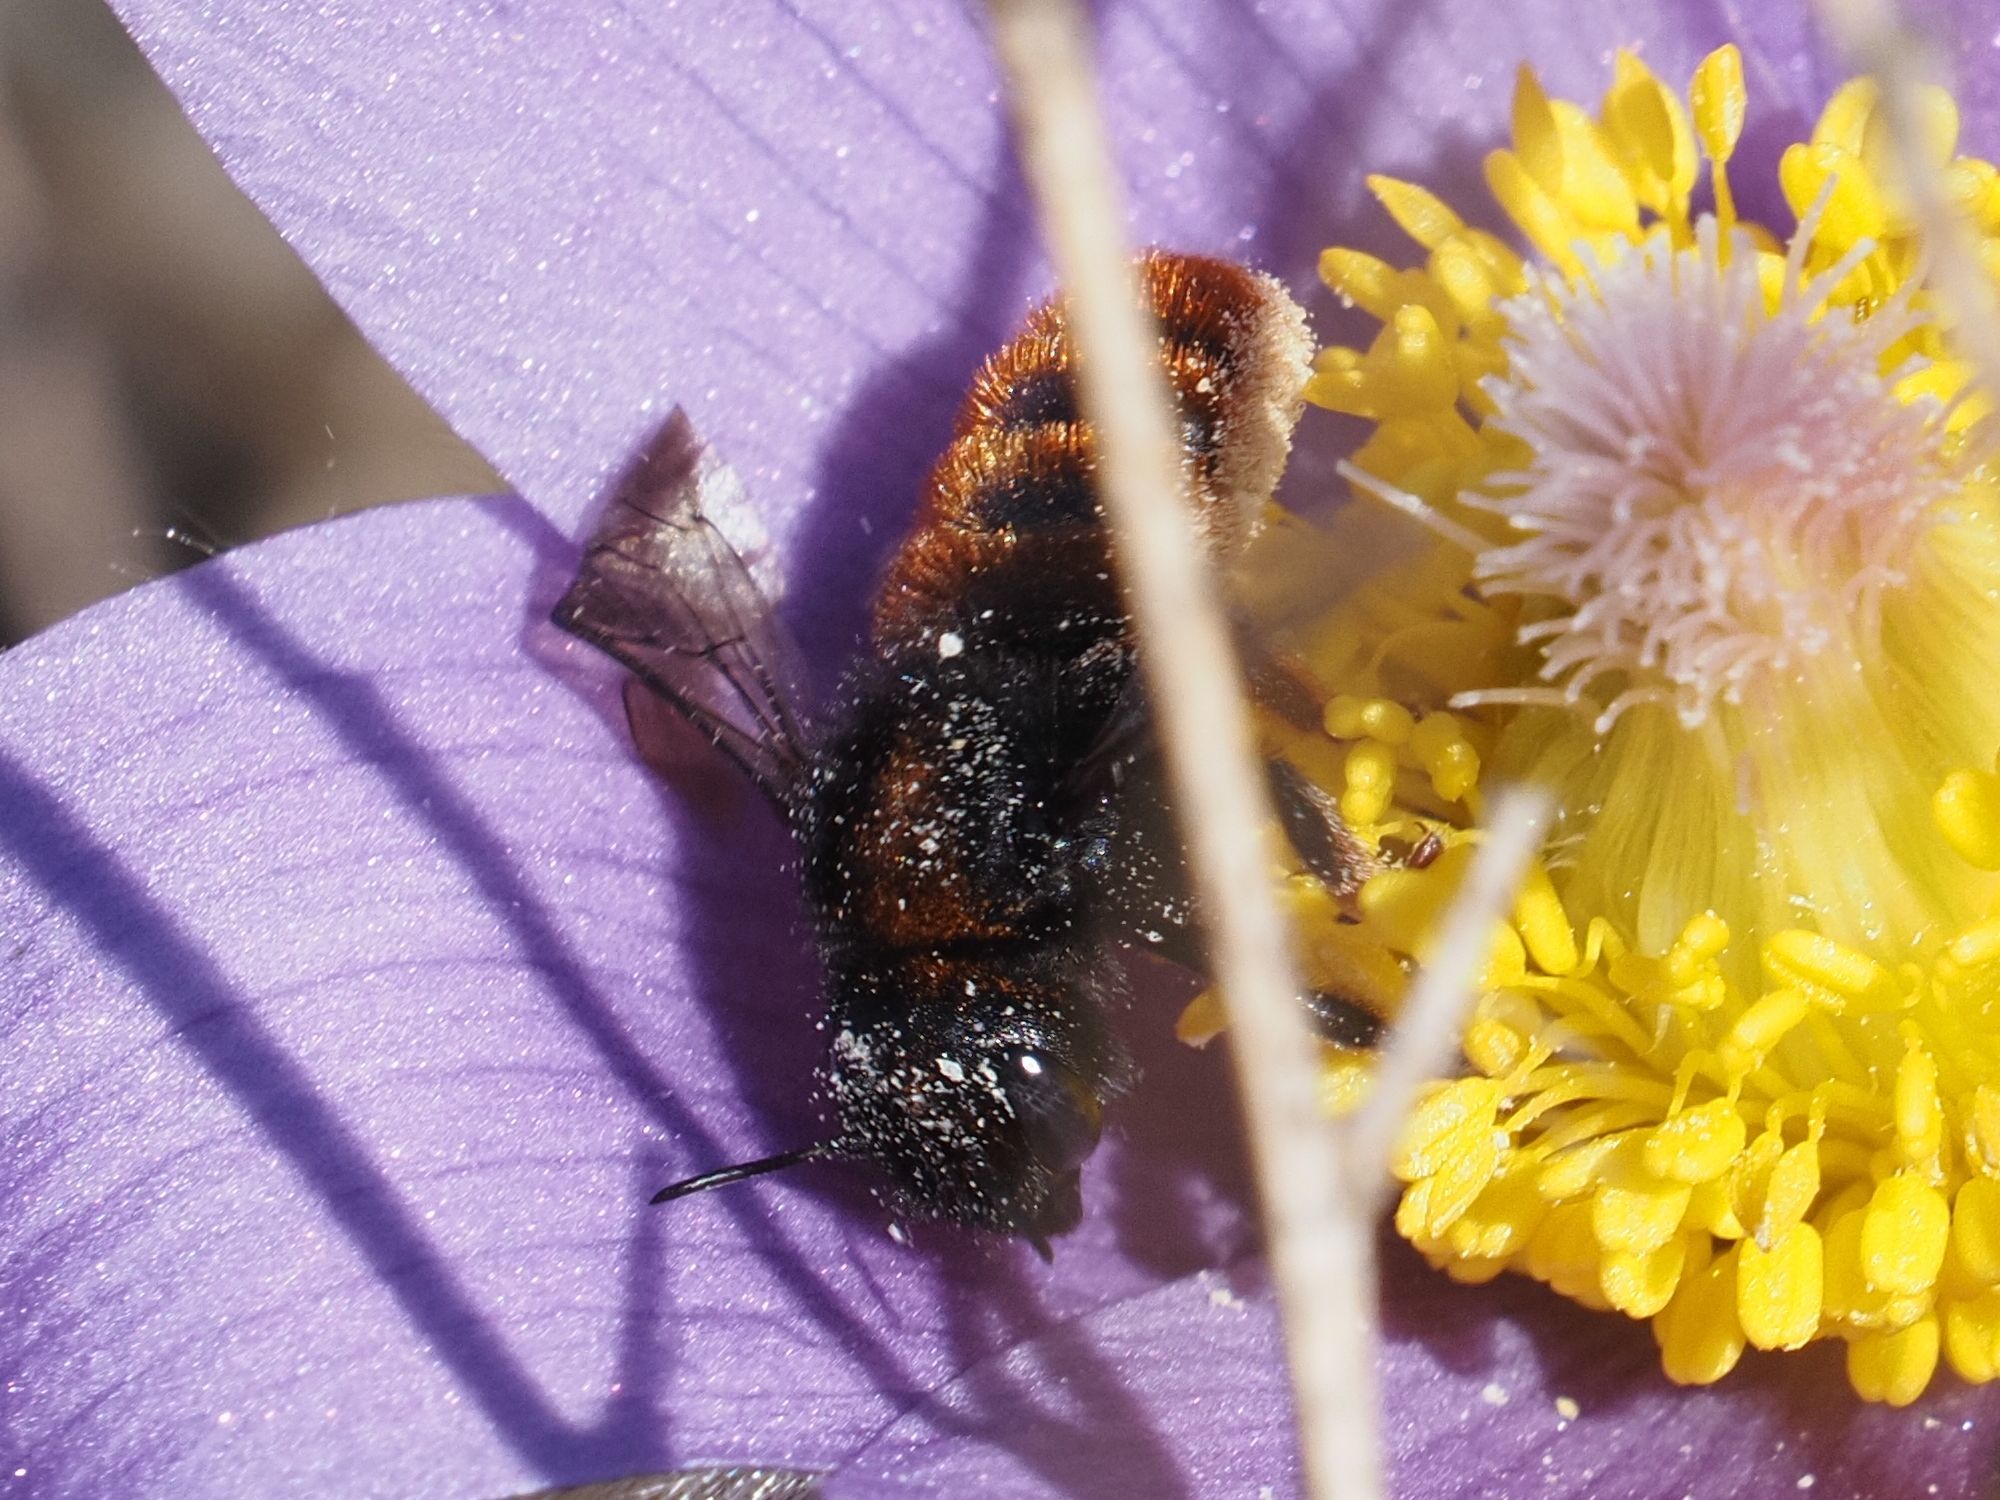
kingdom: Animalia
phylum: Arthropoda
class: Insecta
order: Hymenoptera
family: Megachilidae
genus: Osmia
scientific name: Osmia bicolor
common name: Red-tailed mason bee
